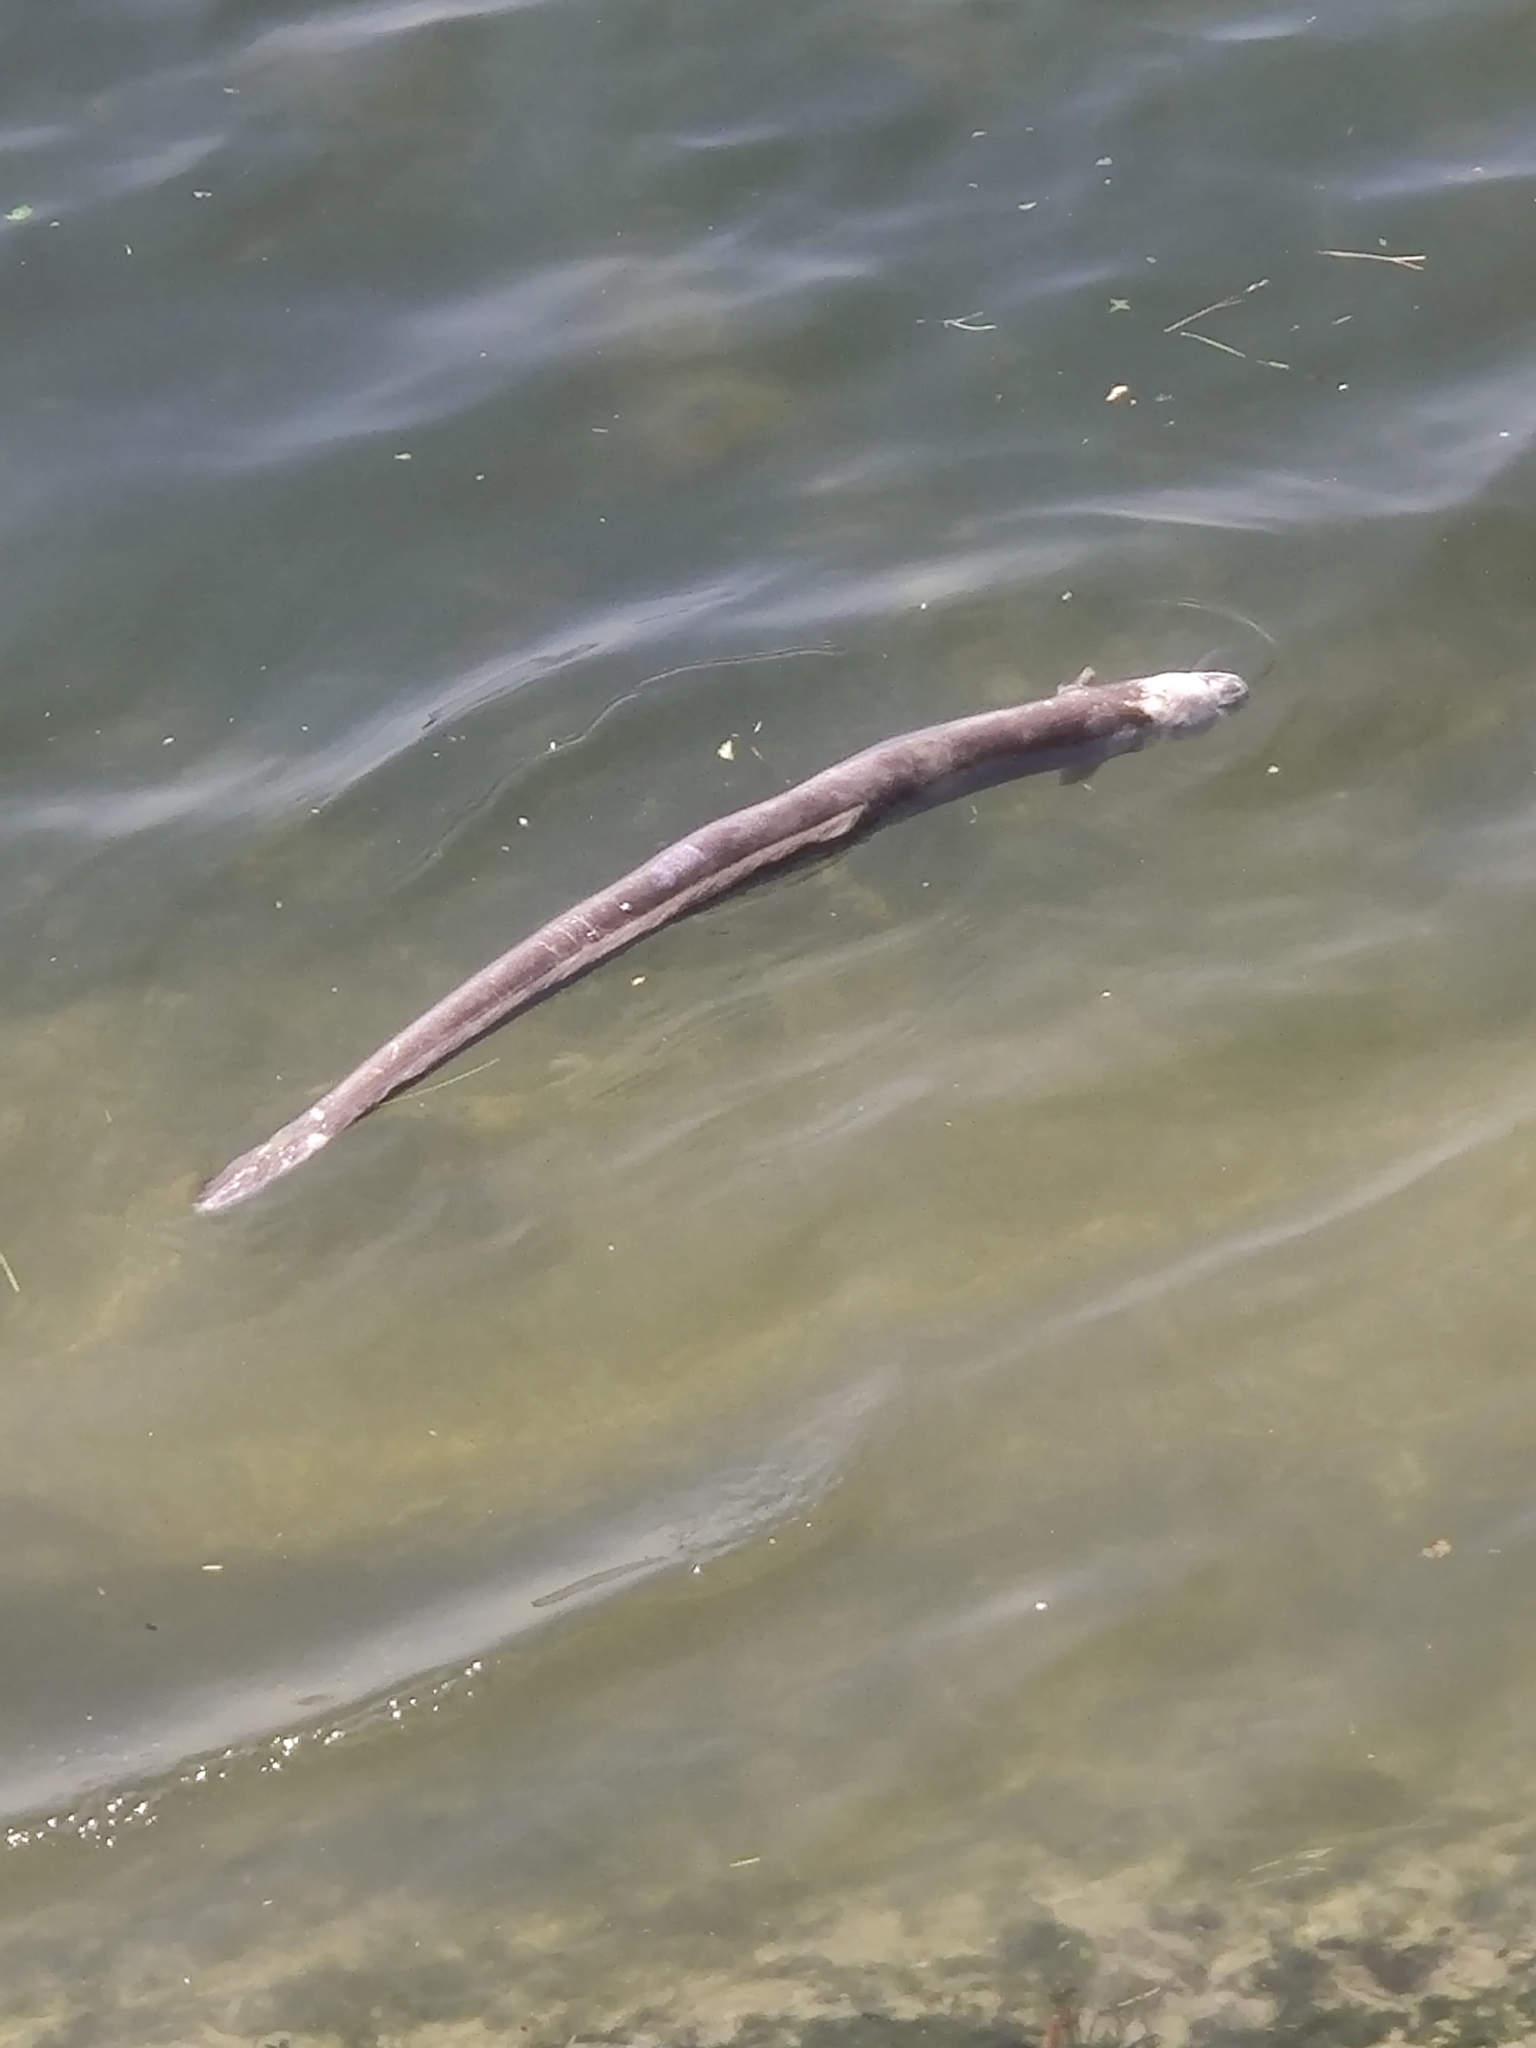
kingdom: Animalia
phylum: Chordata
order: Anguilliformes
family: Anguillidae
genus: Anguilla
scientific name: Anguilla anguilla
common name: European eel
